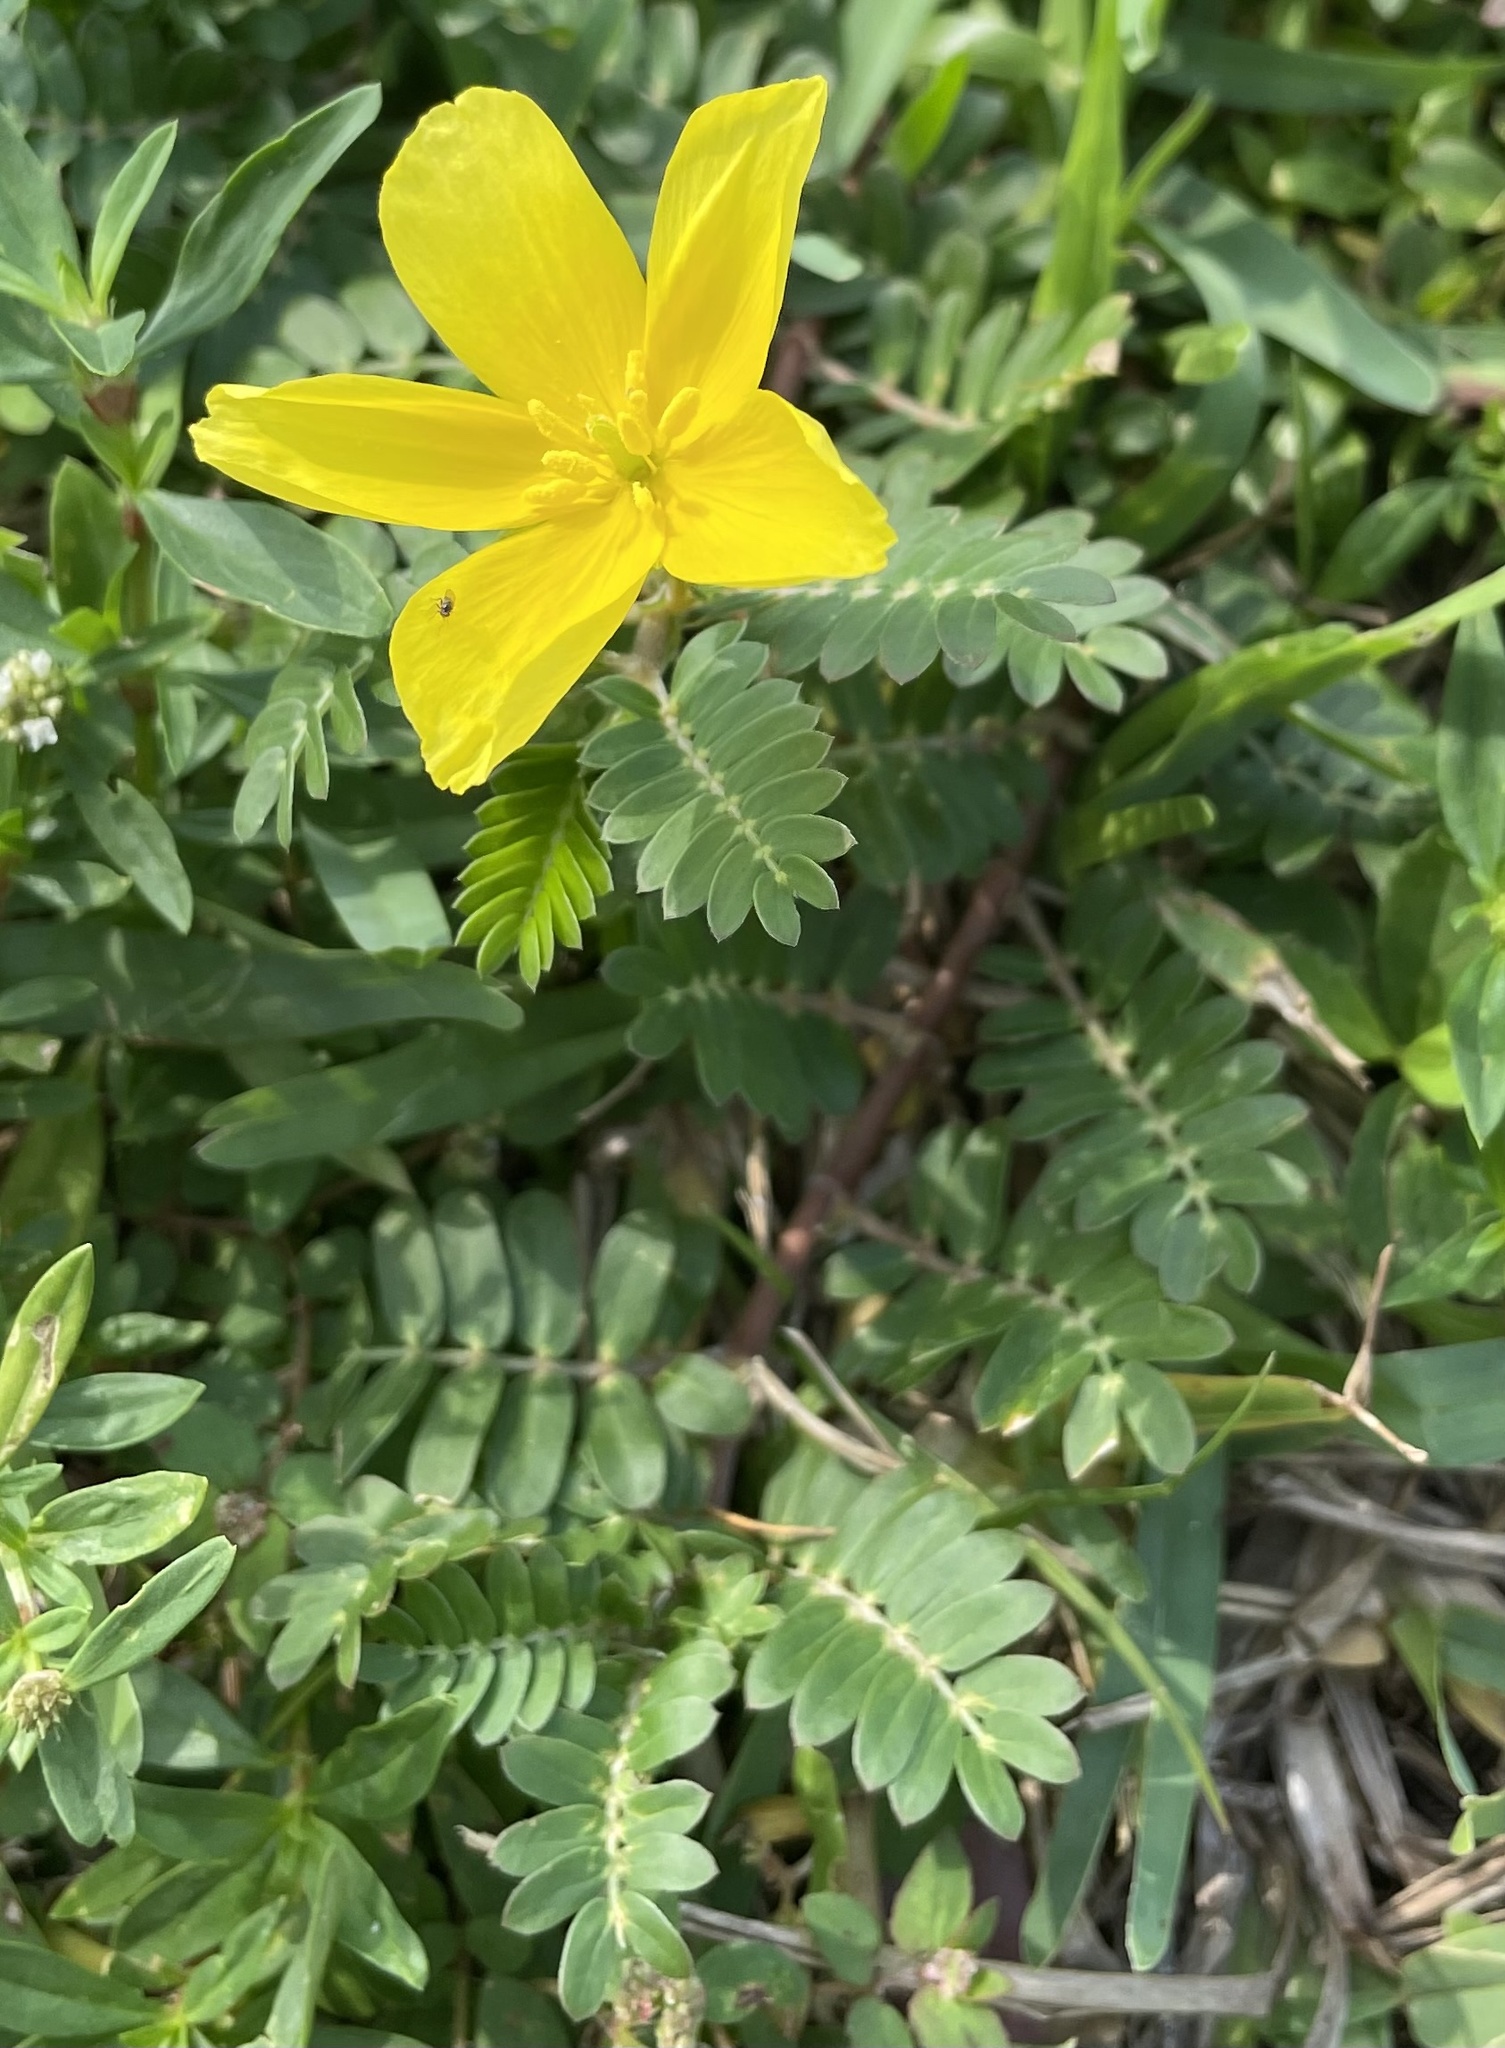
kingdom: Plantae
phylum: Tracheophyta
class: Magnoliopsida
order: Zygophyllales
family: Zygophyllaceae
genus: Tribulus
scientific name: Tribulus cistoides
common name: Jamaican feverplant
